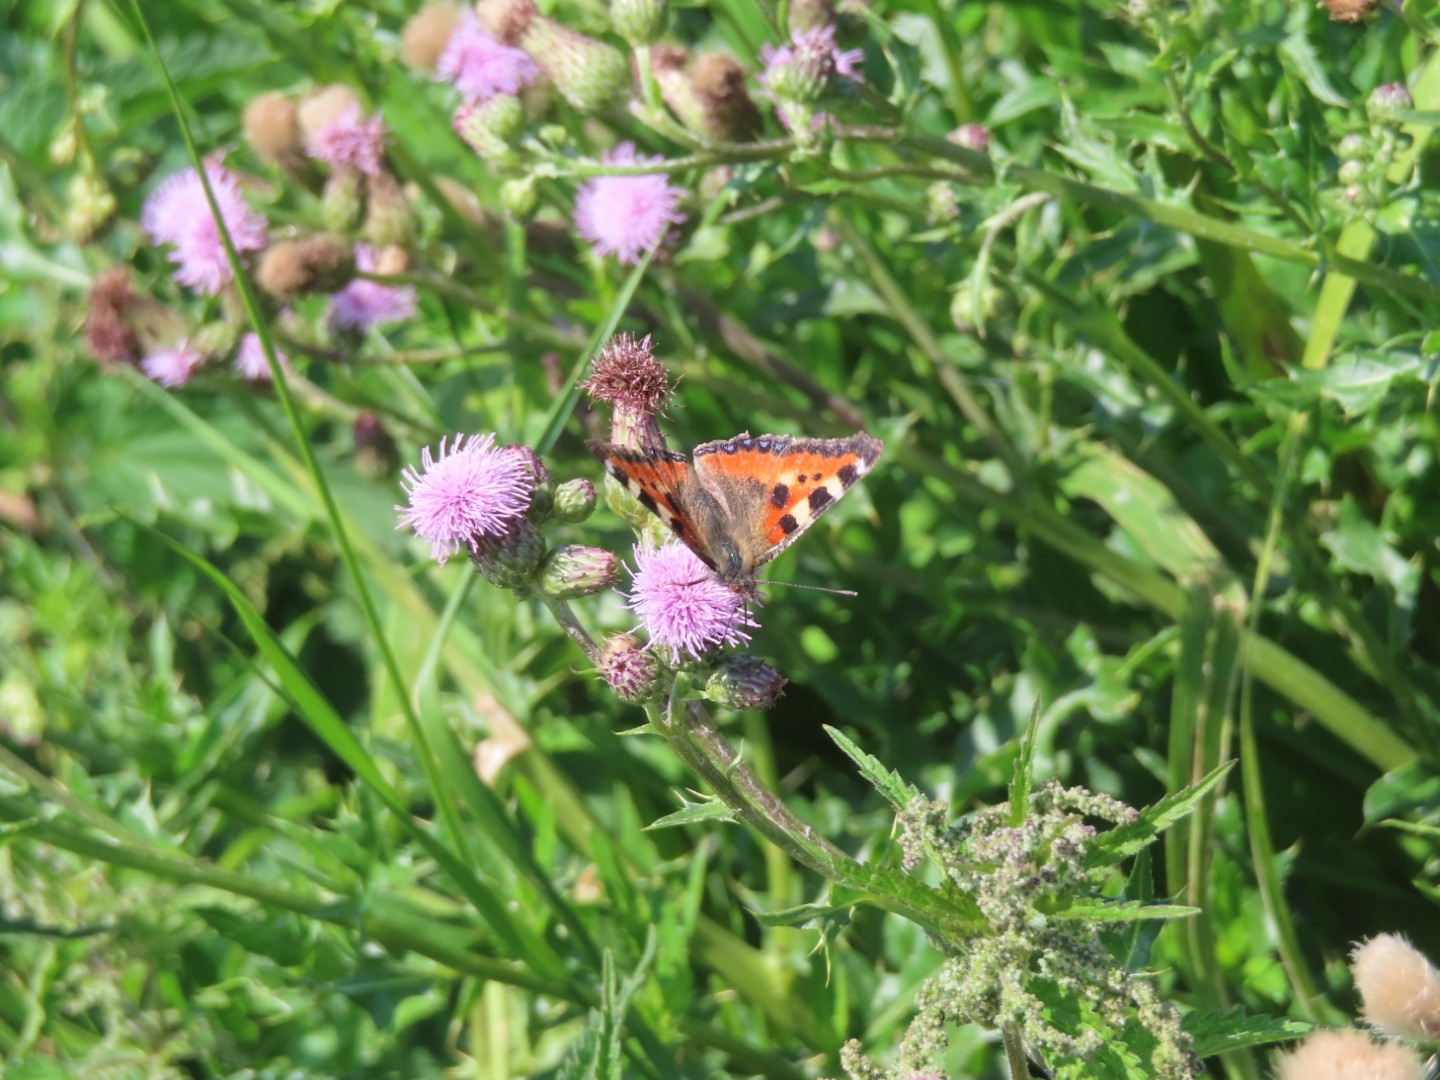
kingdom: Animalia
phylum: Arthropoda
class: Insecta
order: Lepidoptera
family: Nymphalidae
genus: Aglais
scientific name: Aglais urticae
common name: Small tortoiseshell
